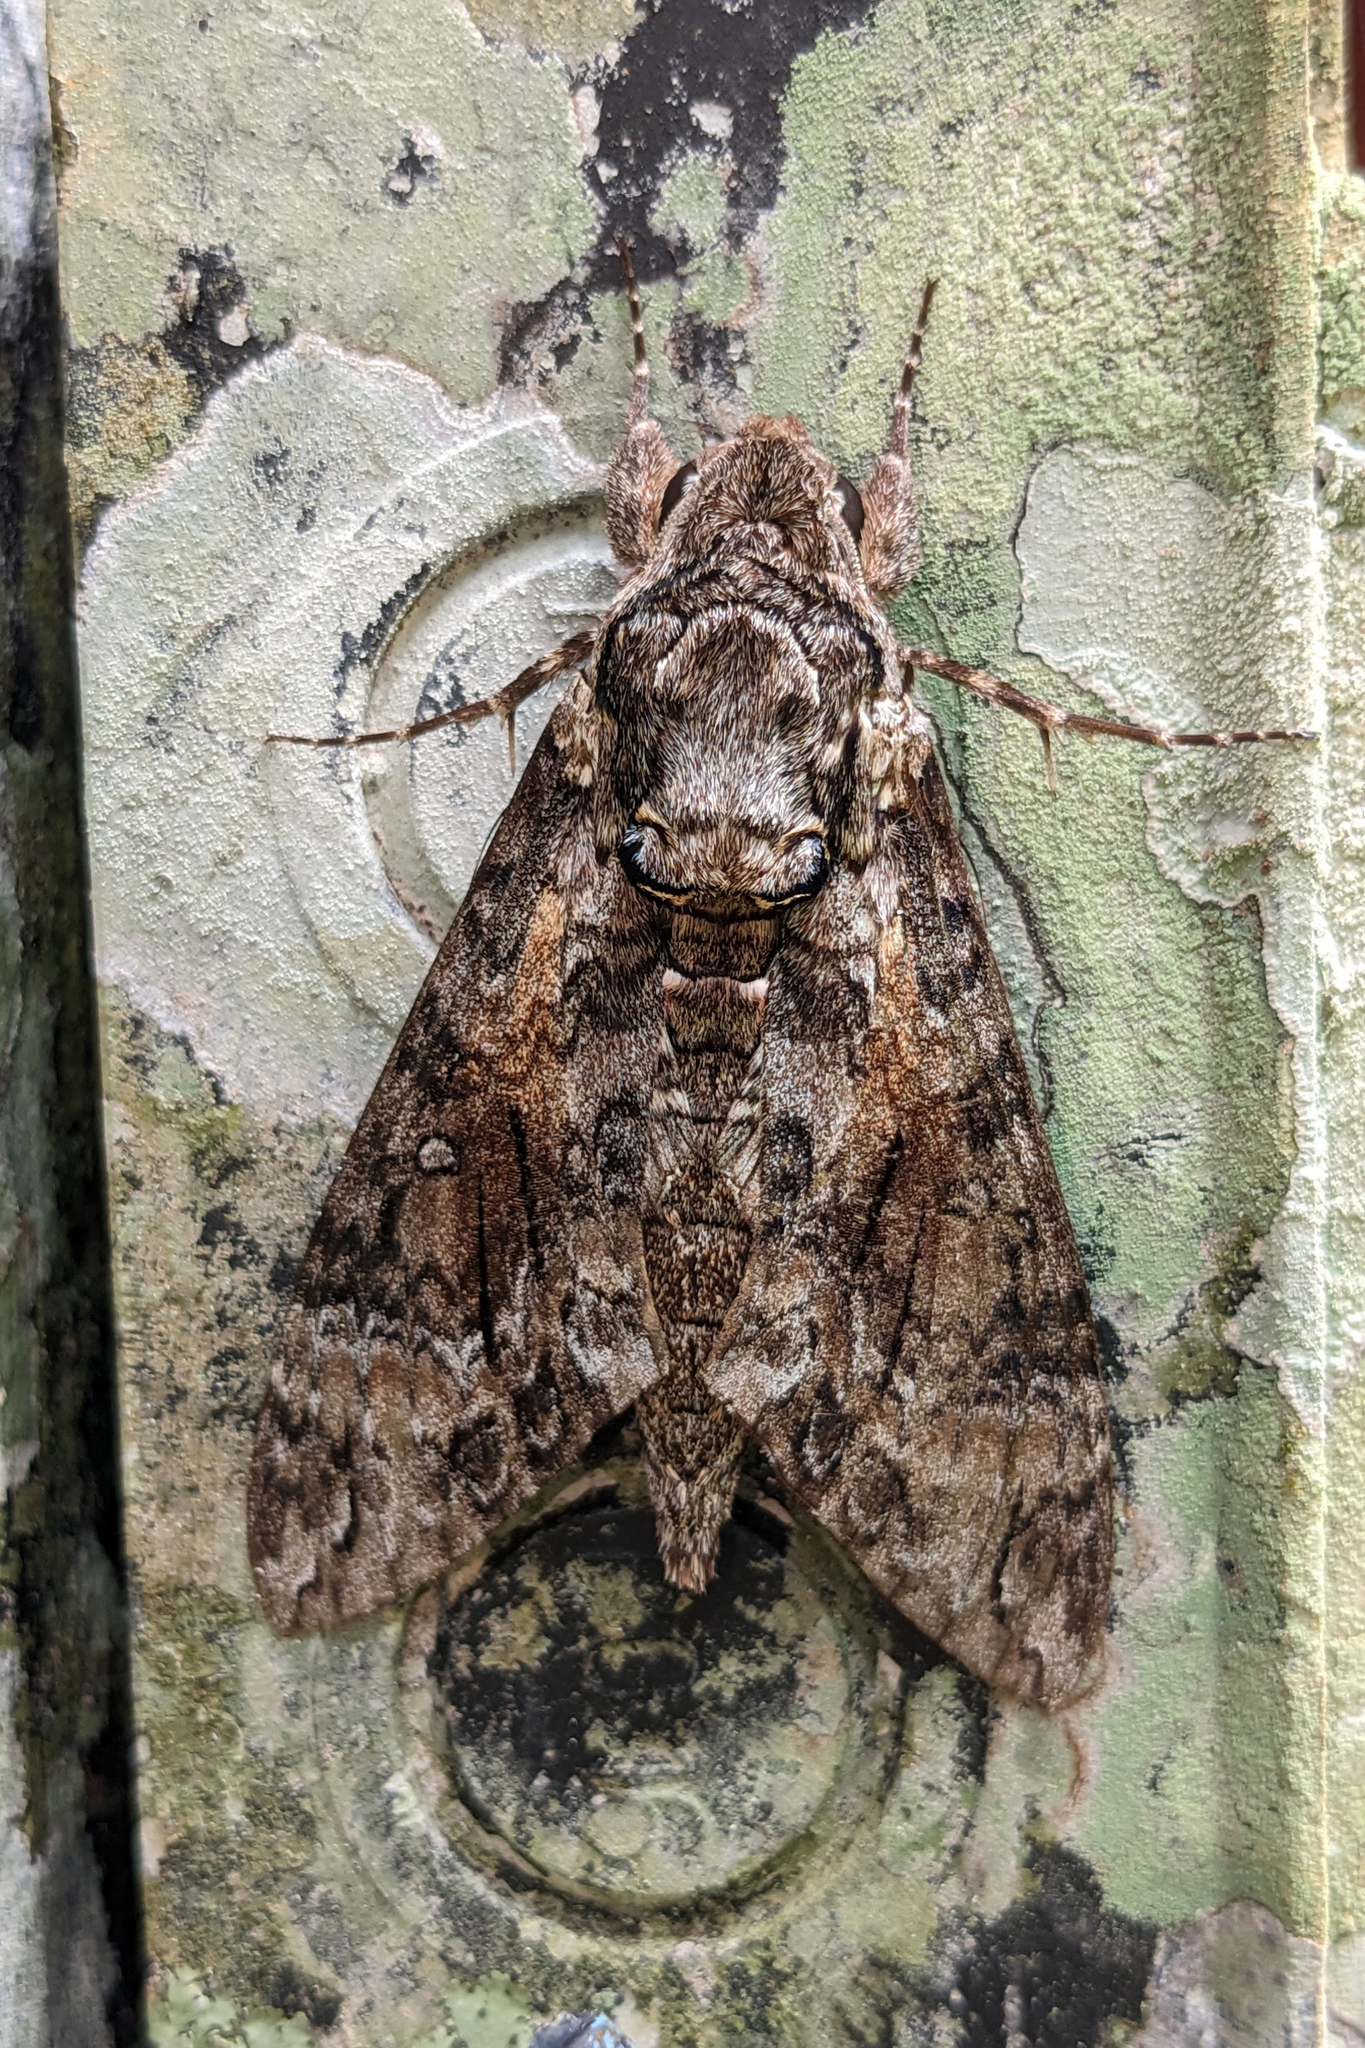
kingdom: Animalia
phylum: Arthropoda
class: Insecta
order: Lepidoptera
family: Sphingidae
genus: Agrius
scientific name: Agrius cingulata
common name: Pink-spotted hawkmoth
